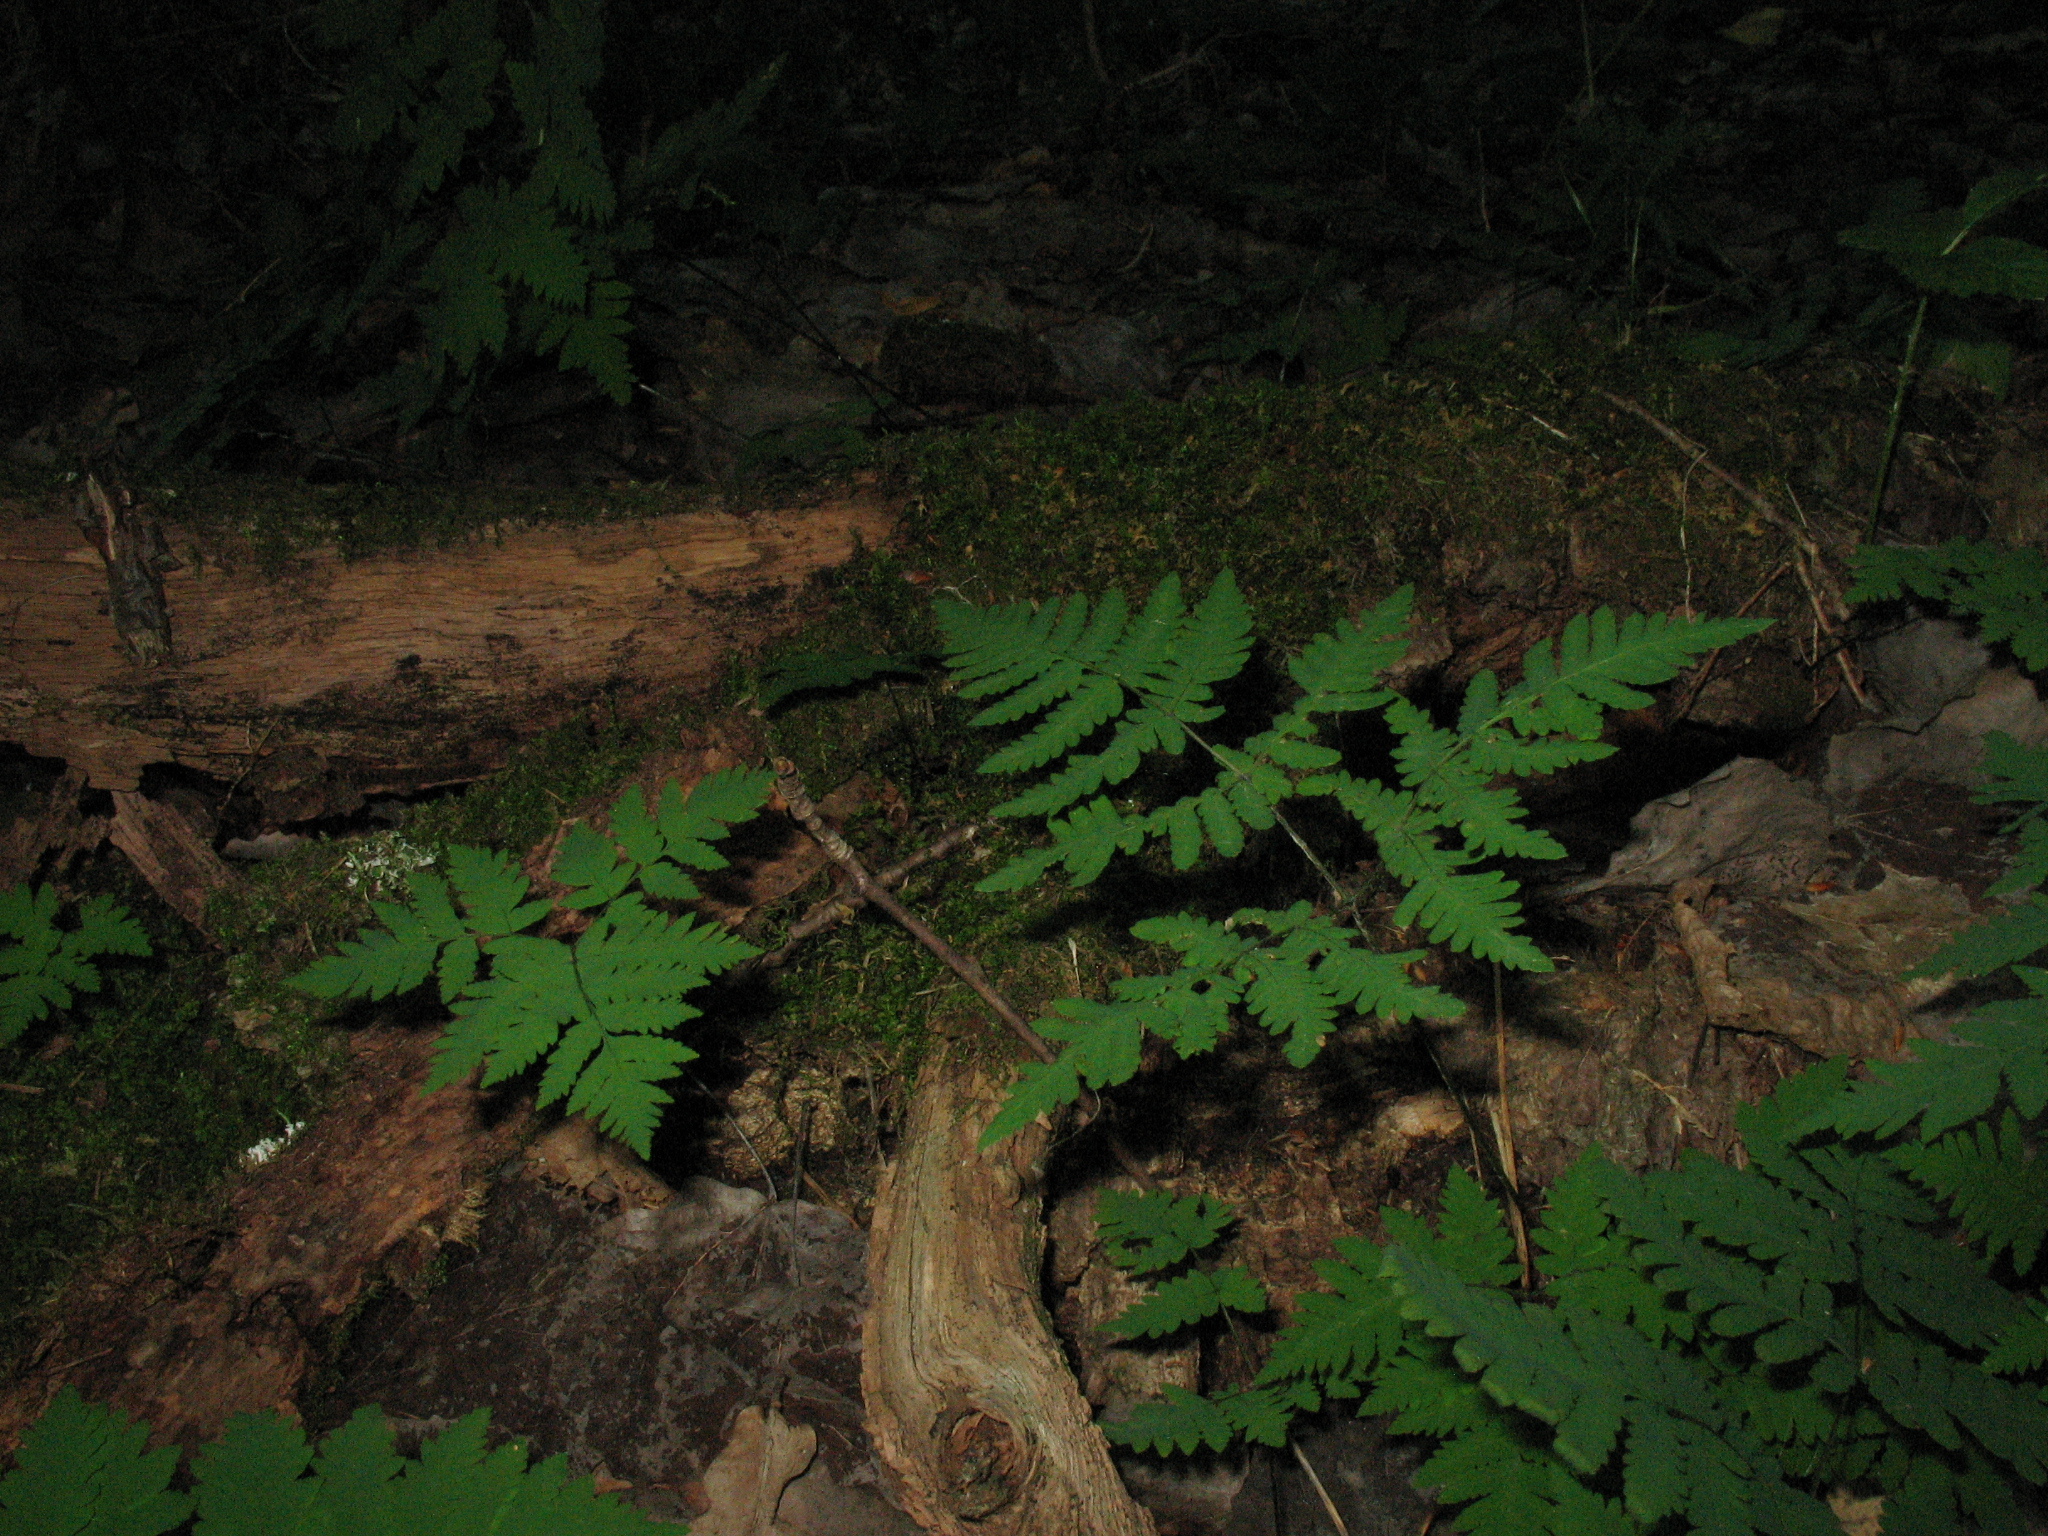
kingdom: Plantae
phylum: Tracheophyta
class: Polypodiopsida
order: Polypodiales
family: Cystopteridaceae
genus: Gymnocarpium
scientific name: Gymnocarpium dryopteris
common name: Oak fern
